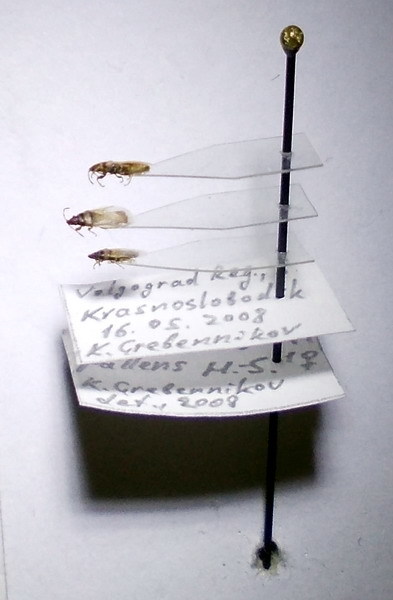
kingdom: Animalia
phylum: Arthropoda
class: Insecta
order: Hemiptera
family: Oxycarenidae
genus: Oxycarenus
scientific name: Oxycarenus pallens
